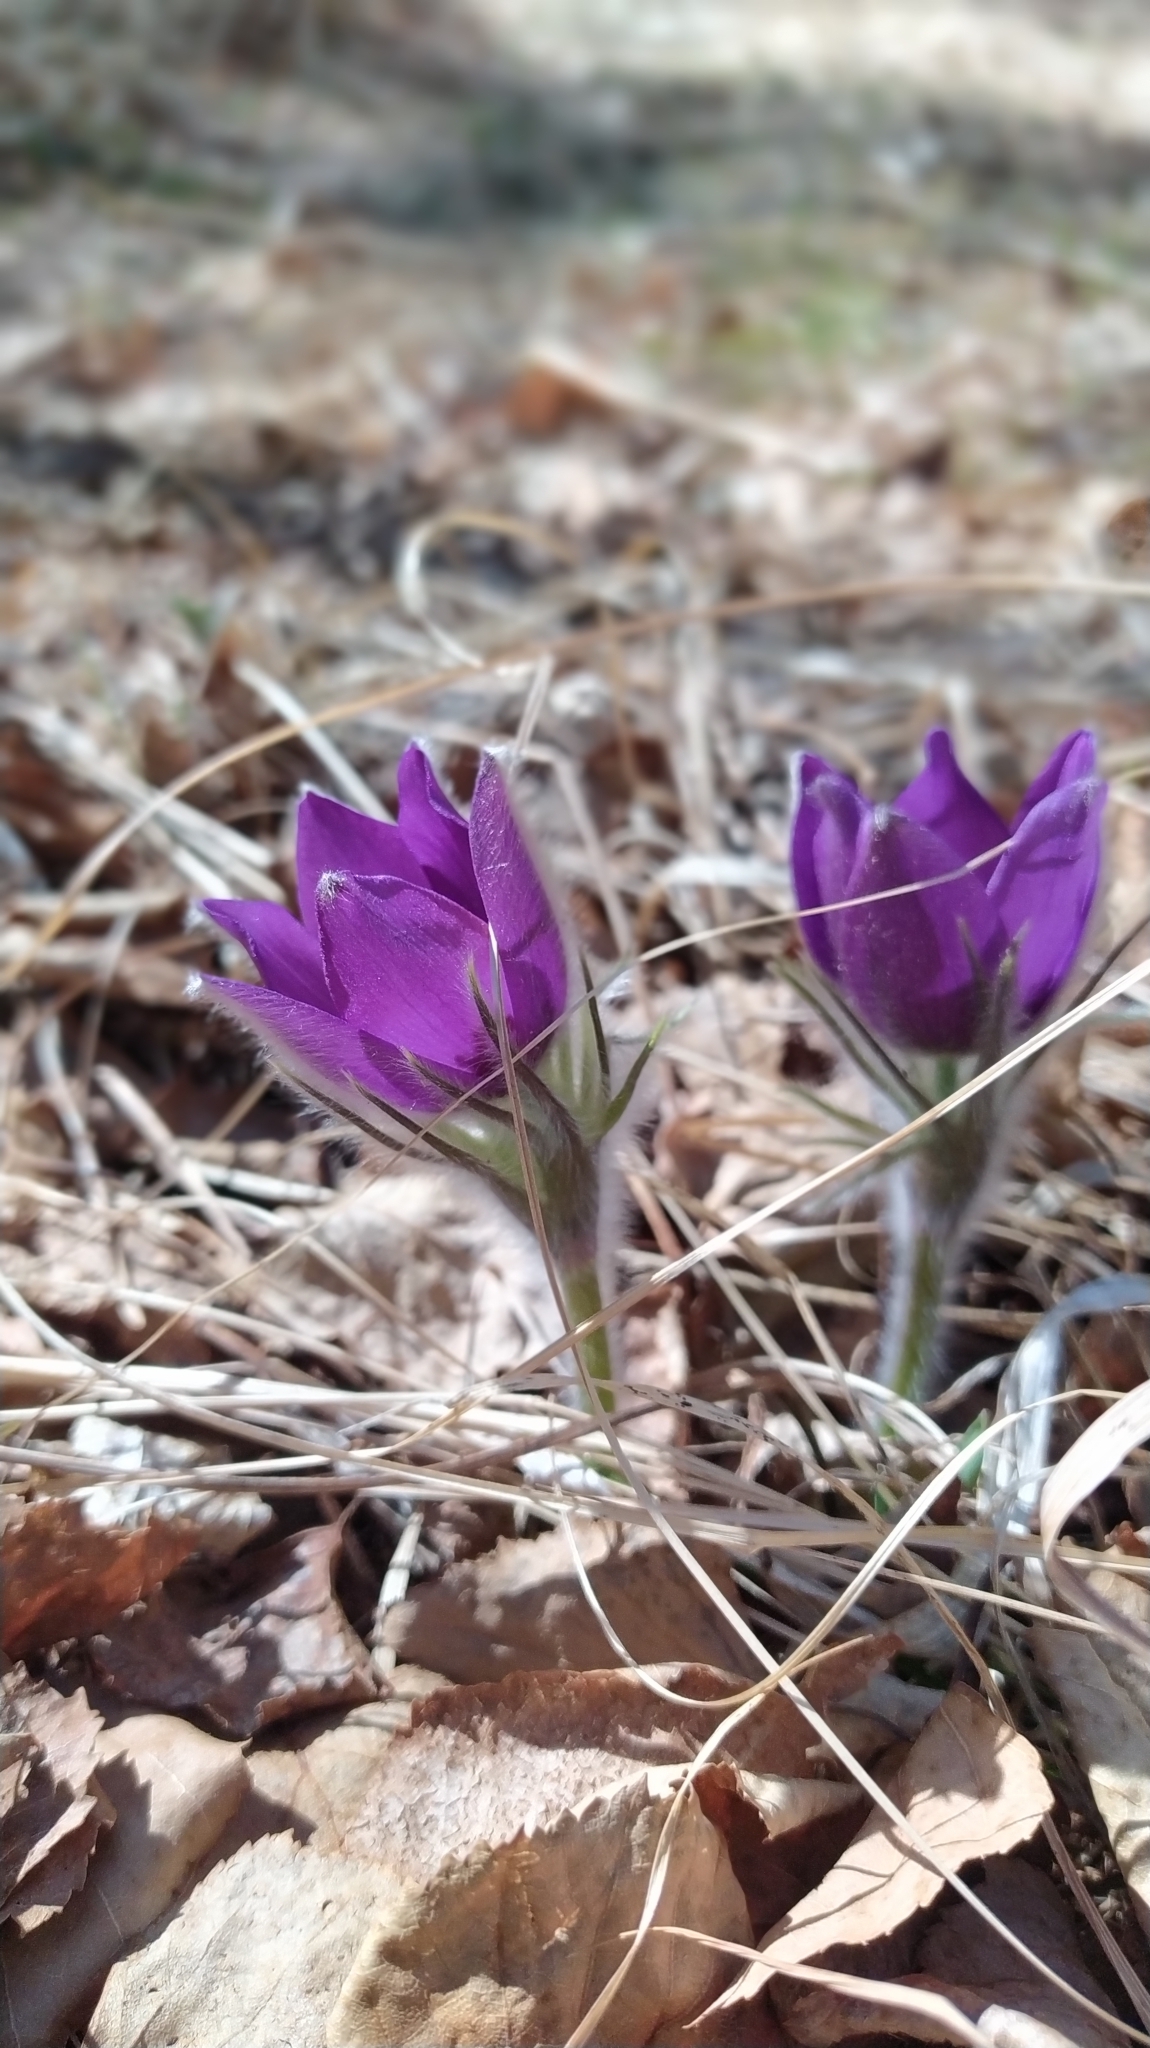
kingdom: Plantae
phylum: Tracheophyta
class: Magnoliopsida
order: Ranunculales
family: Ranunculaceae
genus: Pulsatilla
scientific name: Pulsatilla patens
